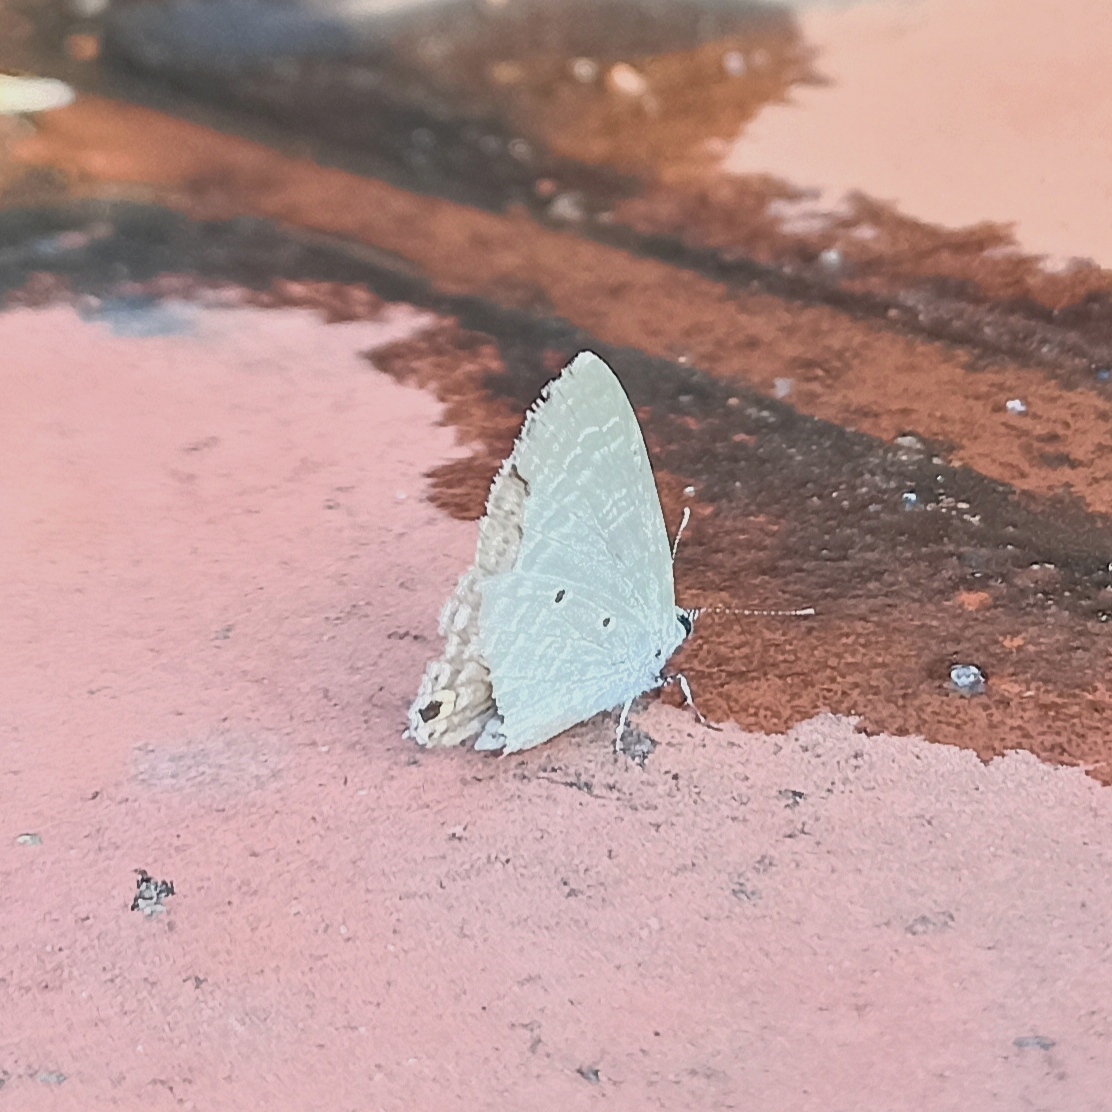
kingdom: Animalia
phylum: Arthropoda
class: Insecta
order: Lepidoptera
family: Lycaenidae
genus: Catochrysops
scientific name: Catochrysops strabo
